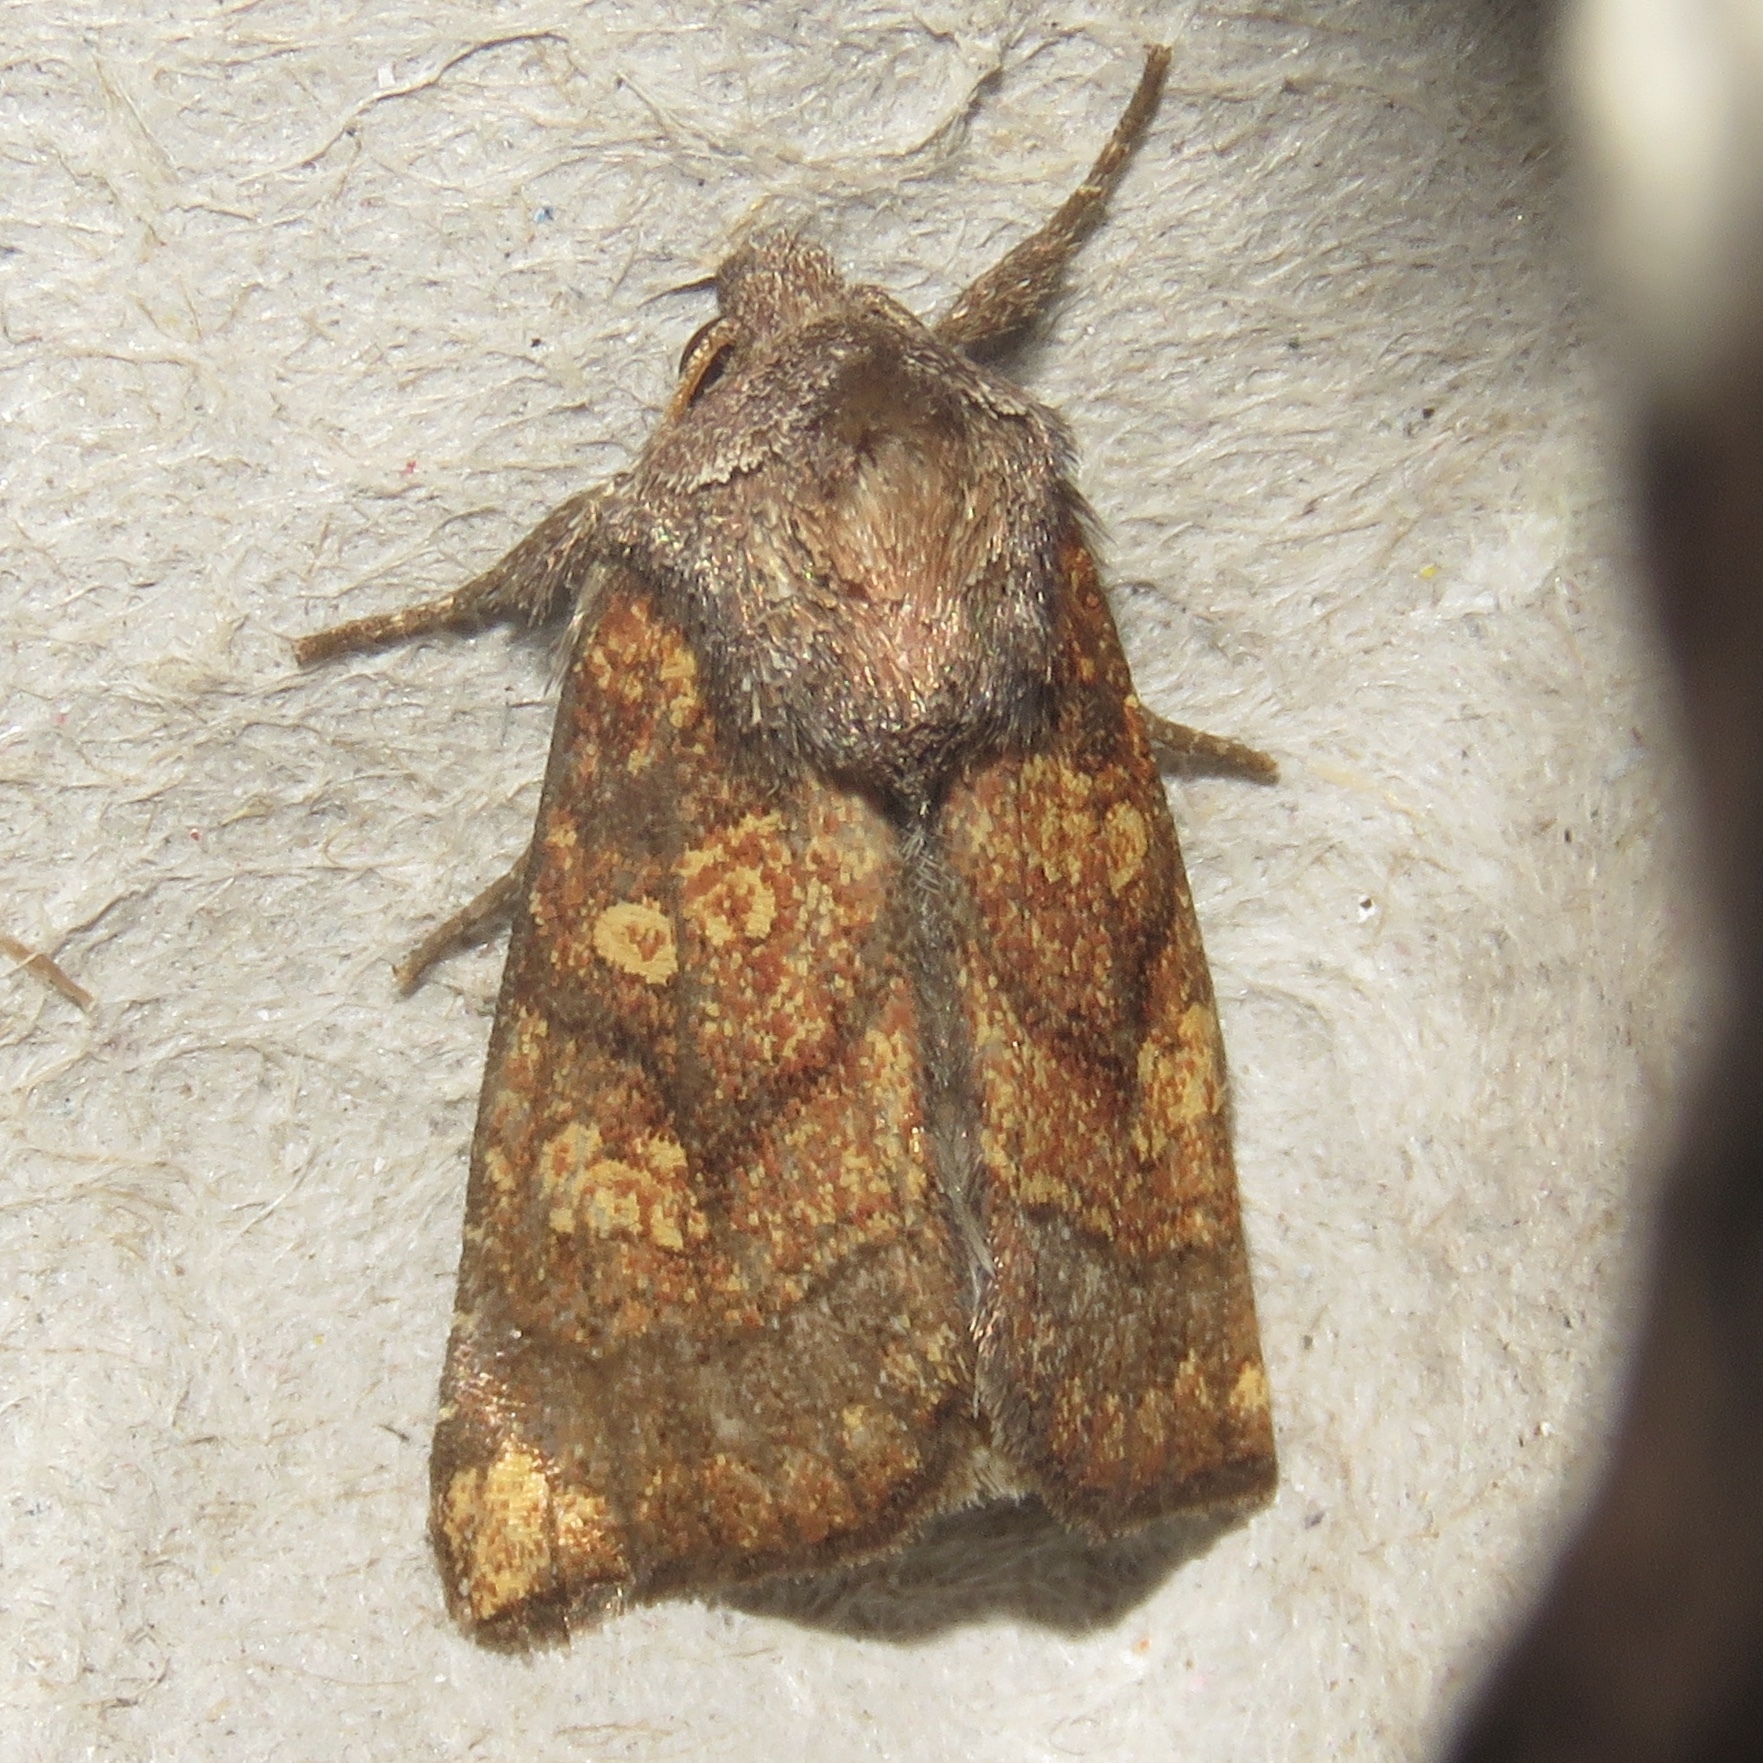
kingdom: Animalia
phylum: Arthropoda
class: Insecta
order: Lepidoptera
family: Noctuidae
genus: Papaipema
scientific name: Papaipema impecuniosa
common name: Aster borer moth
